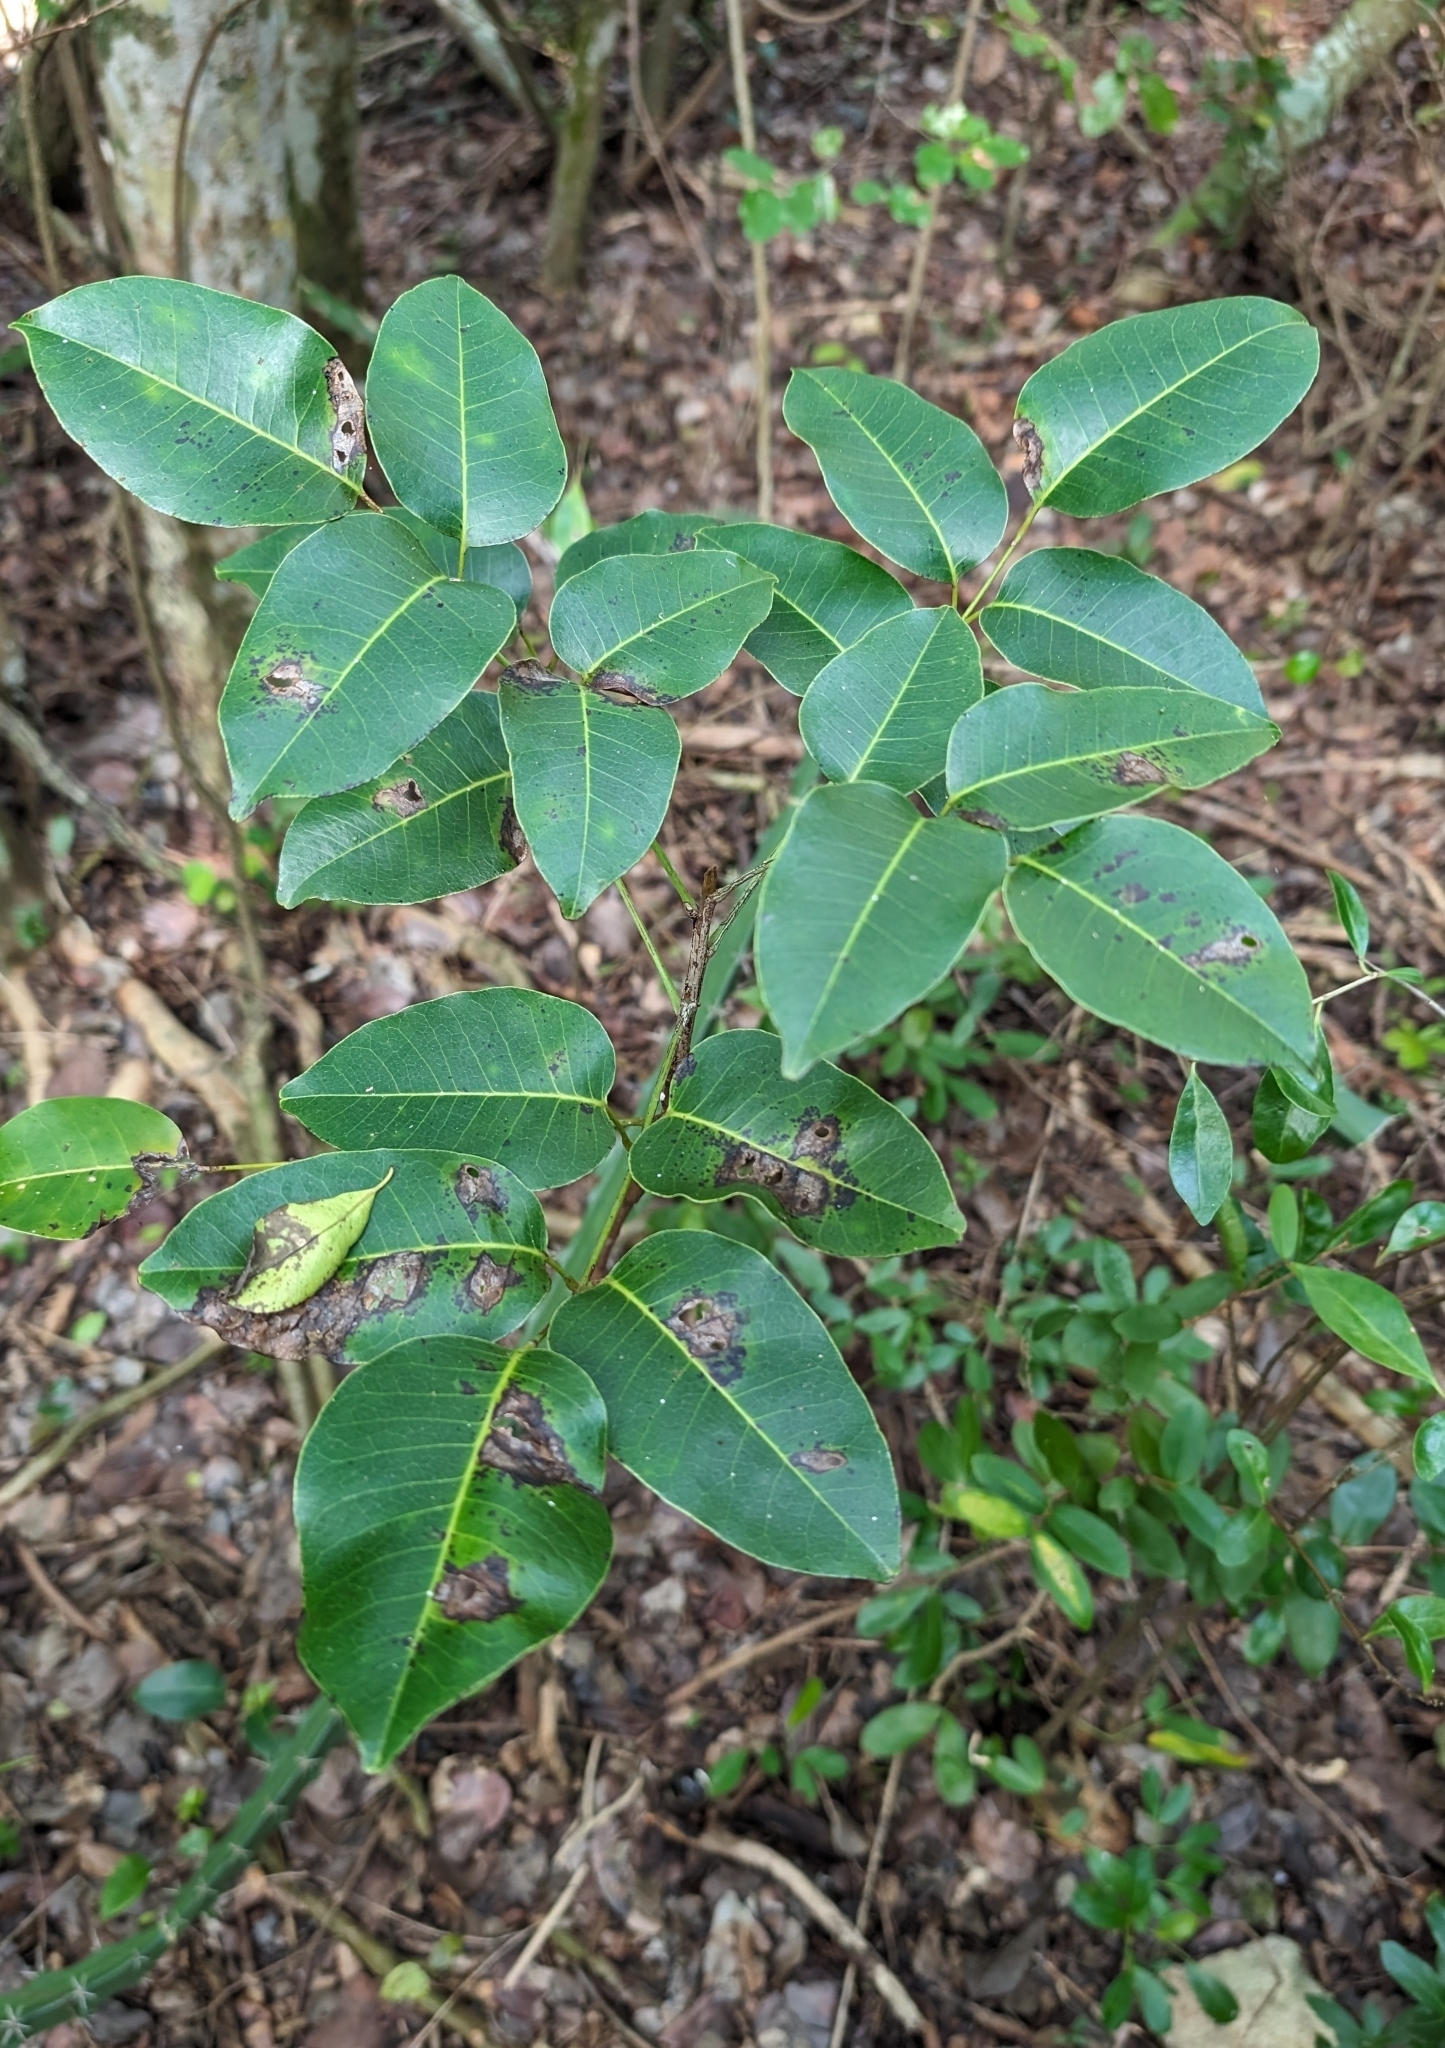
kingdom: Plantae
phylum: Tracheophyta
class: Magnoliopsida
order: Sapindales
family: Anacardiaceae
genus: Metopium
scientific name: Metopium toxiferum
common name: Florida poisontree
